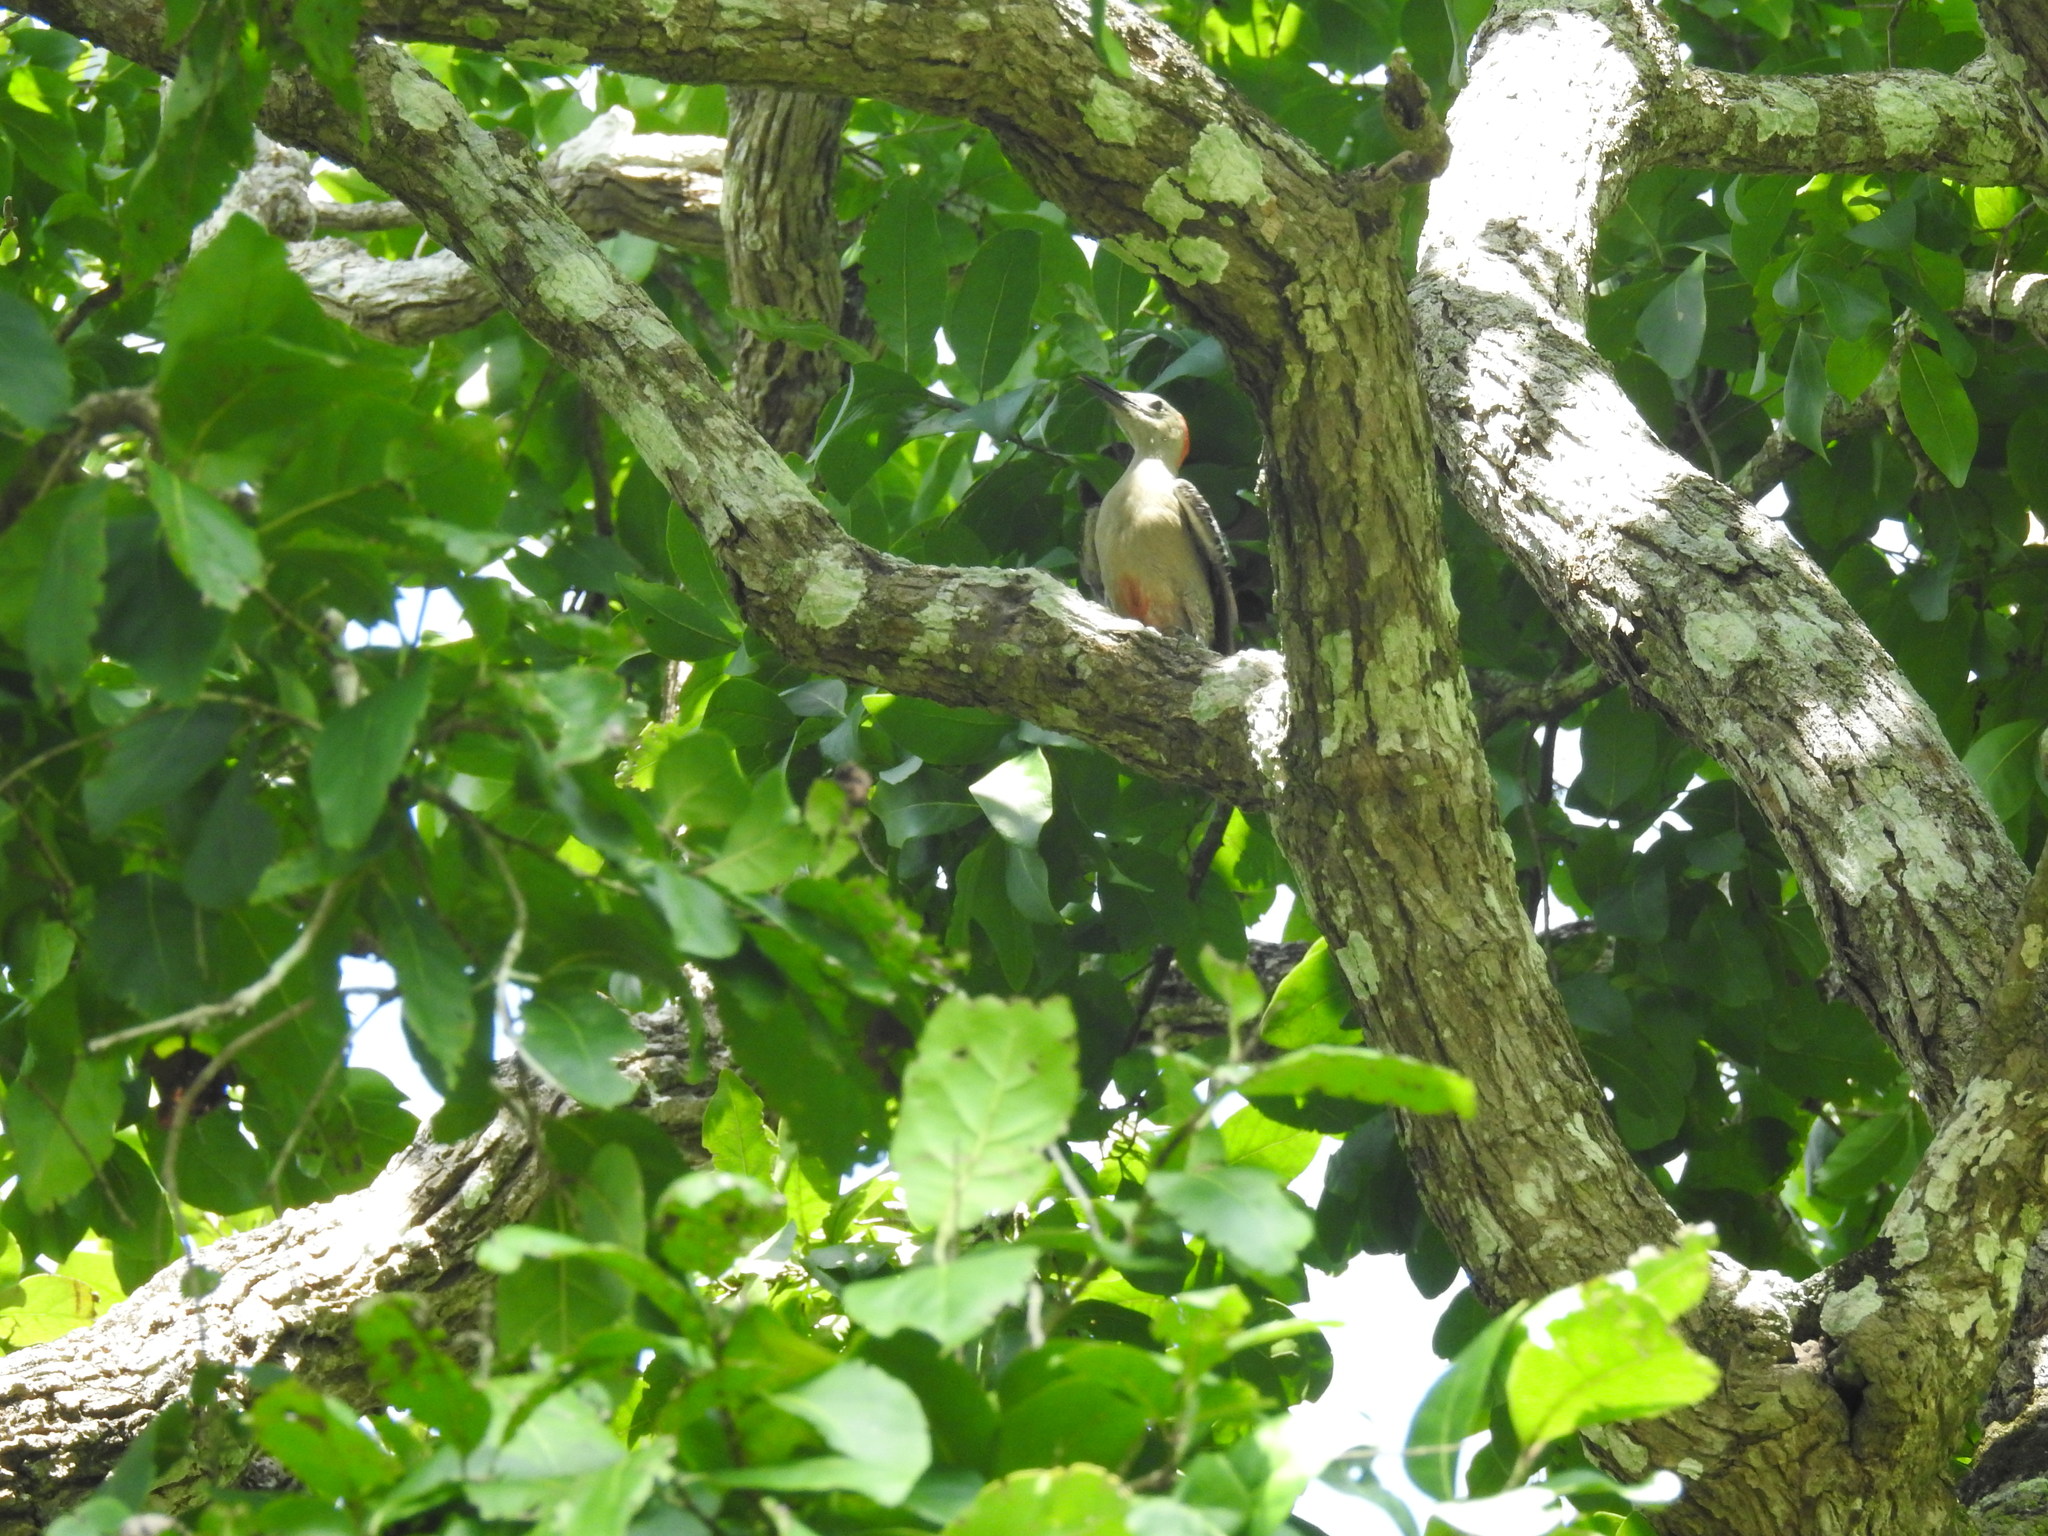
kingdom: Animalia
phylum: Chordata
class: Aves
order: Piciformes
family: Picidae
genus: Melanerpes
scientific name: Melanerpes aurifrons
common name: Golden-fronted woodpecker
